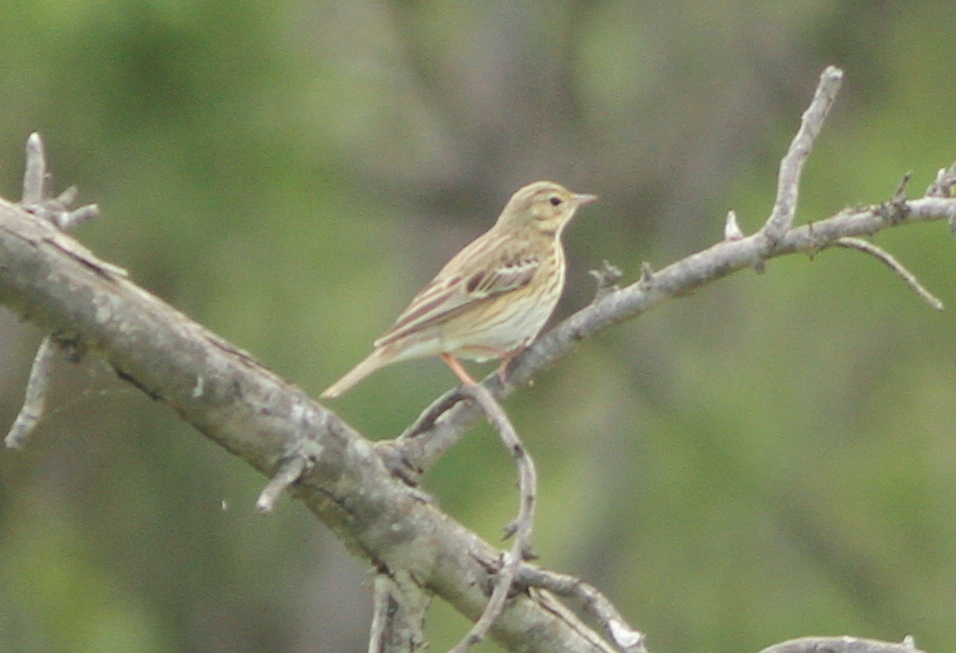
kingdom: Animalia
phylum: Chordata
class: Aves
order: Passeriformes
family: Motacillidae
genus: Anthus
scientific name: Anthus trivialis
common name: Tree pipit
